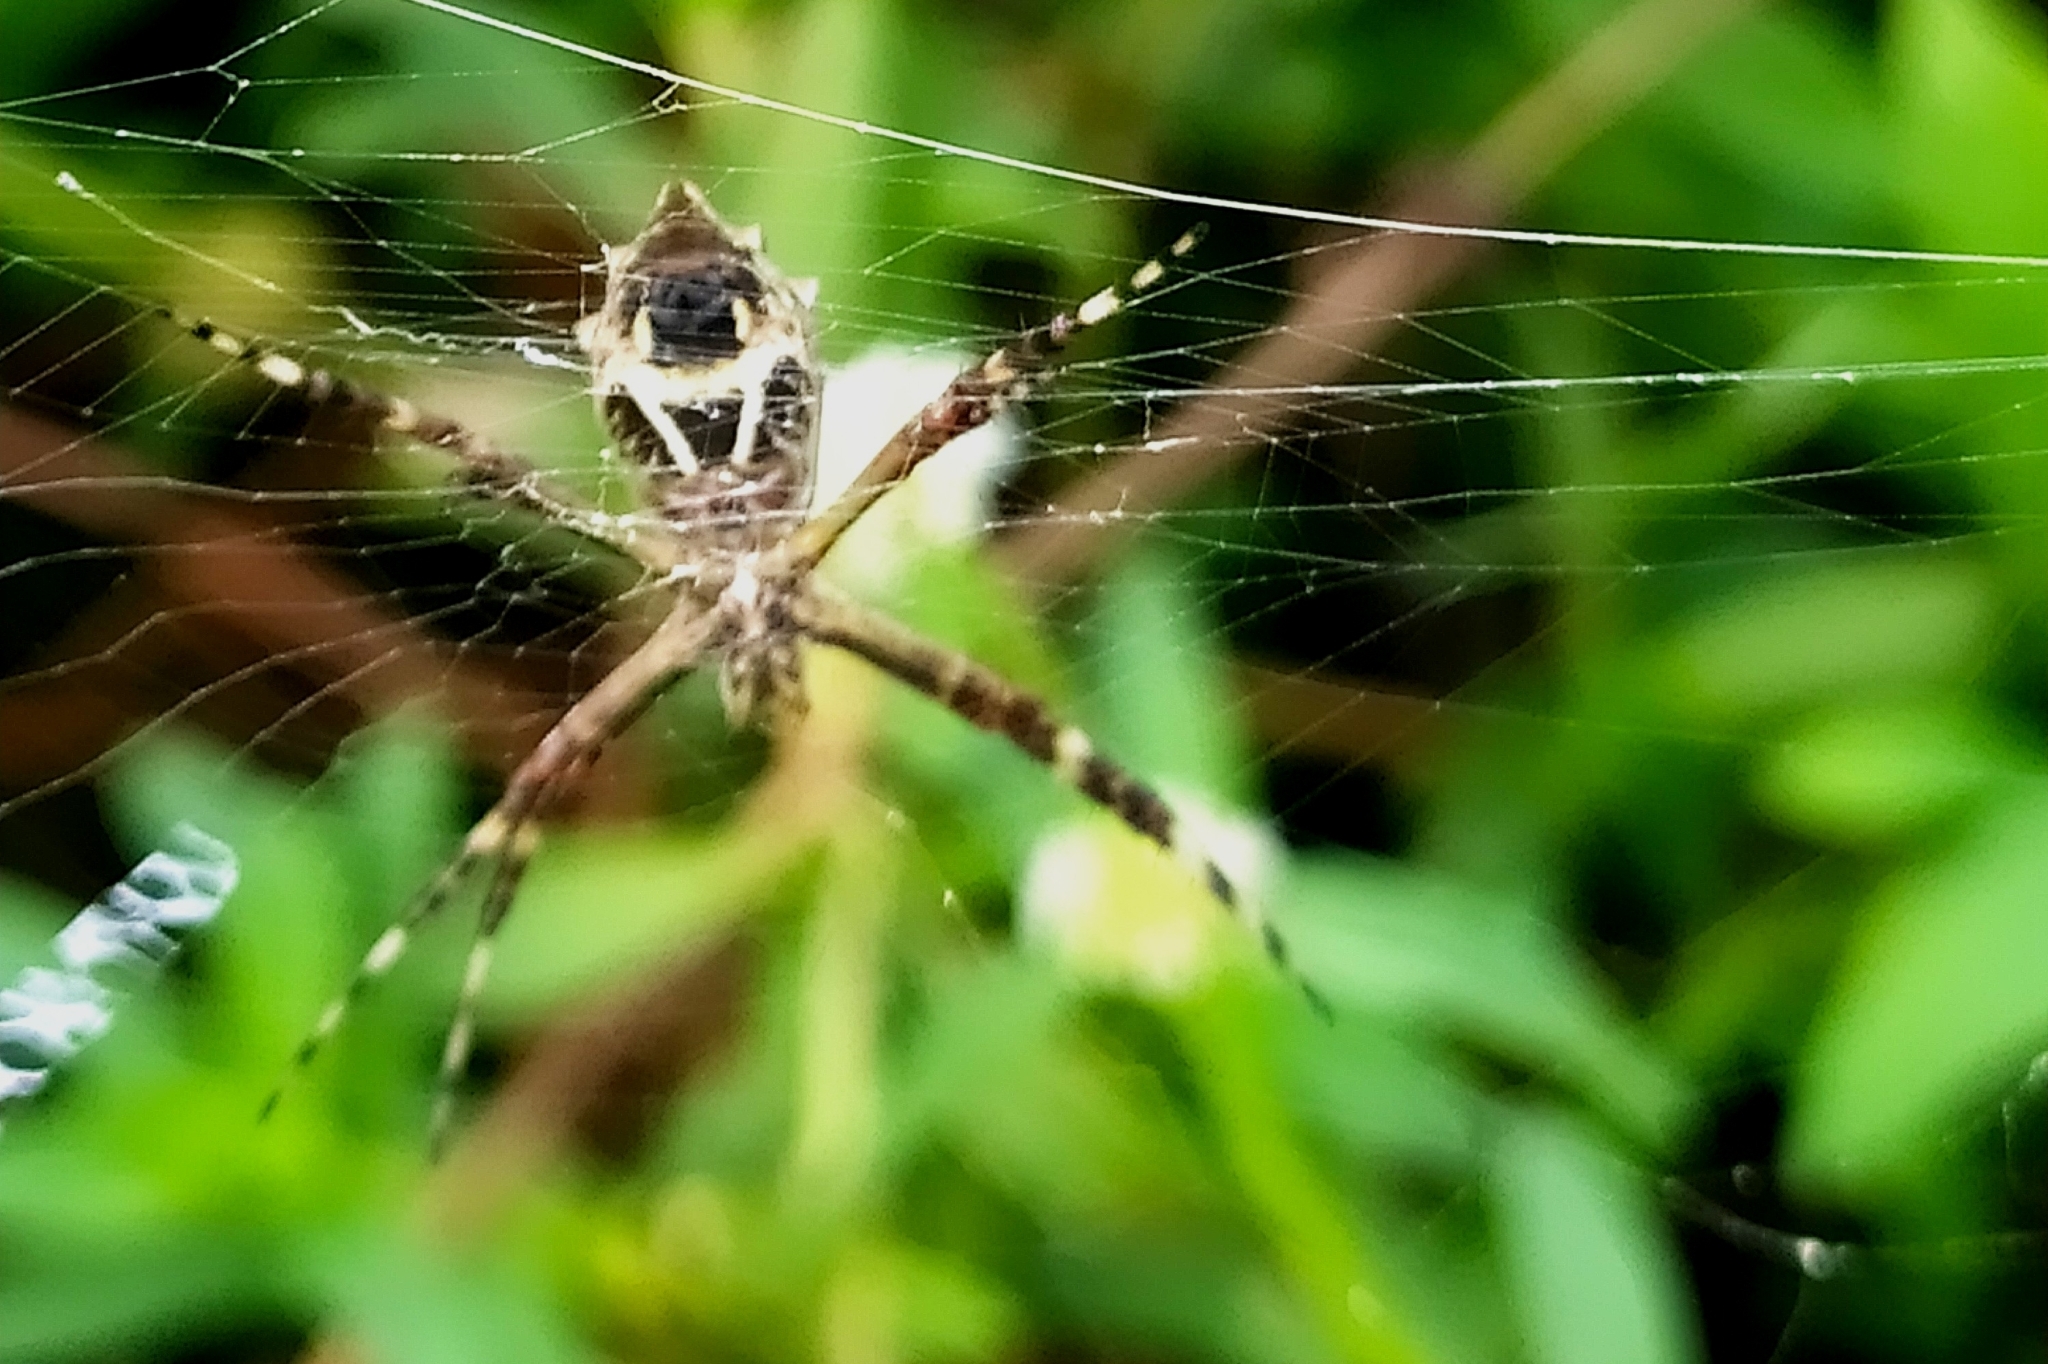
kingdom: Animalia
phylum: Arthropoda
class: Arachnida
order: Araneae
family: Araneidae
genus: Argiope
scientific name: Argiope argentata
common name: Orb weavers
